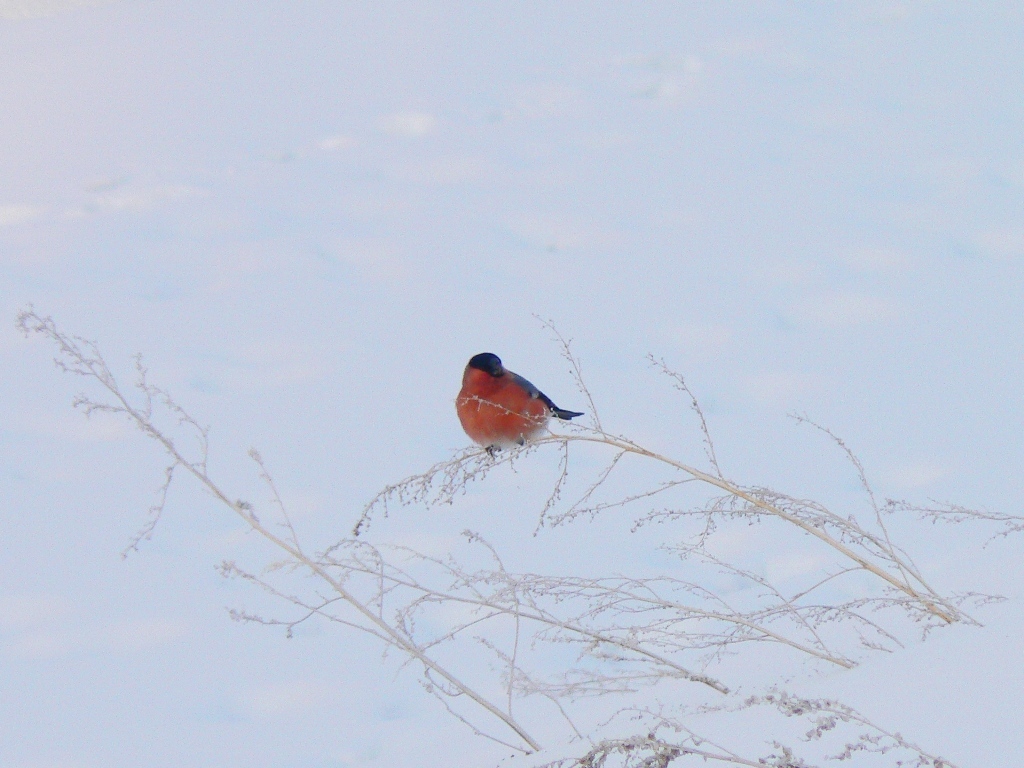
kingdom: Animalia
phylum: Chordata
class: Aves
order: Passeriformes
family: Fringillidae
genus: Pyrrhula
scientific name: Pyrrhula pyrrhula
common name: Eurasian bullfinch
